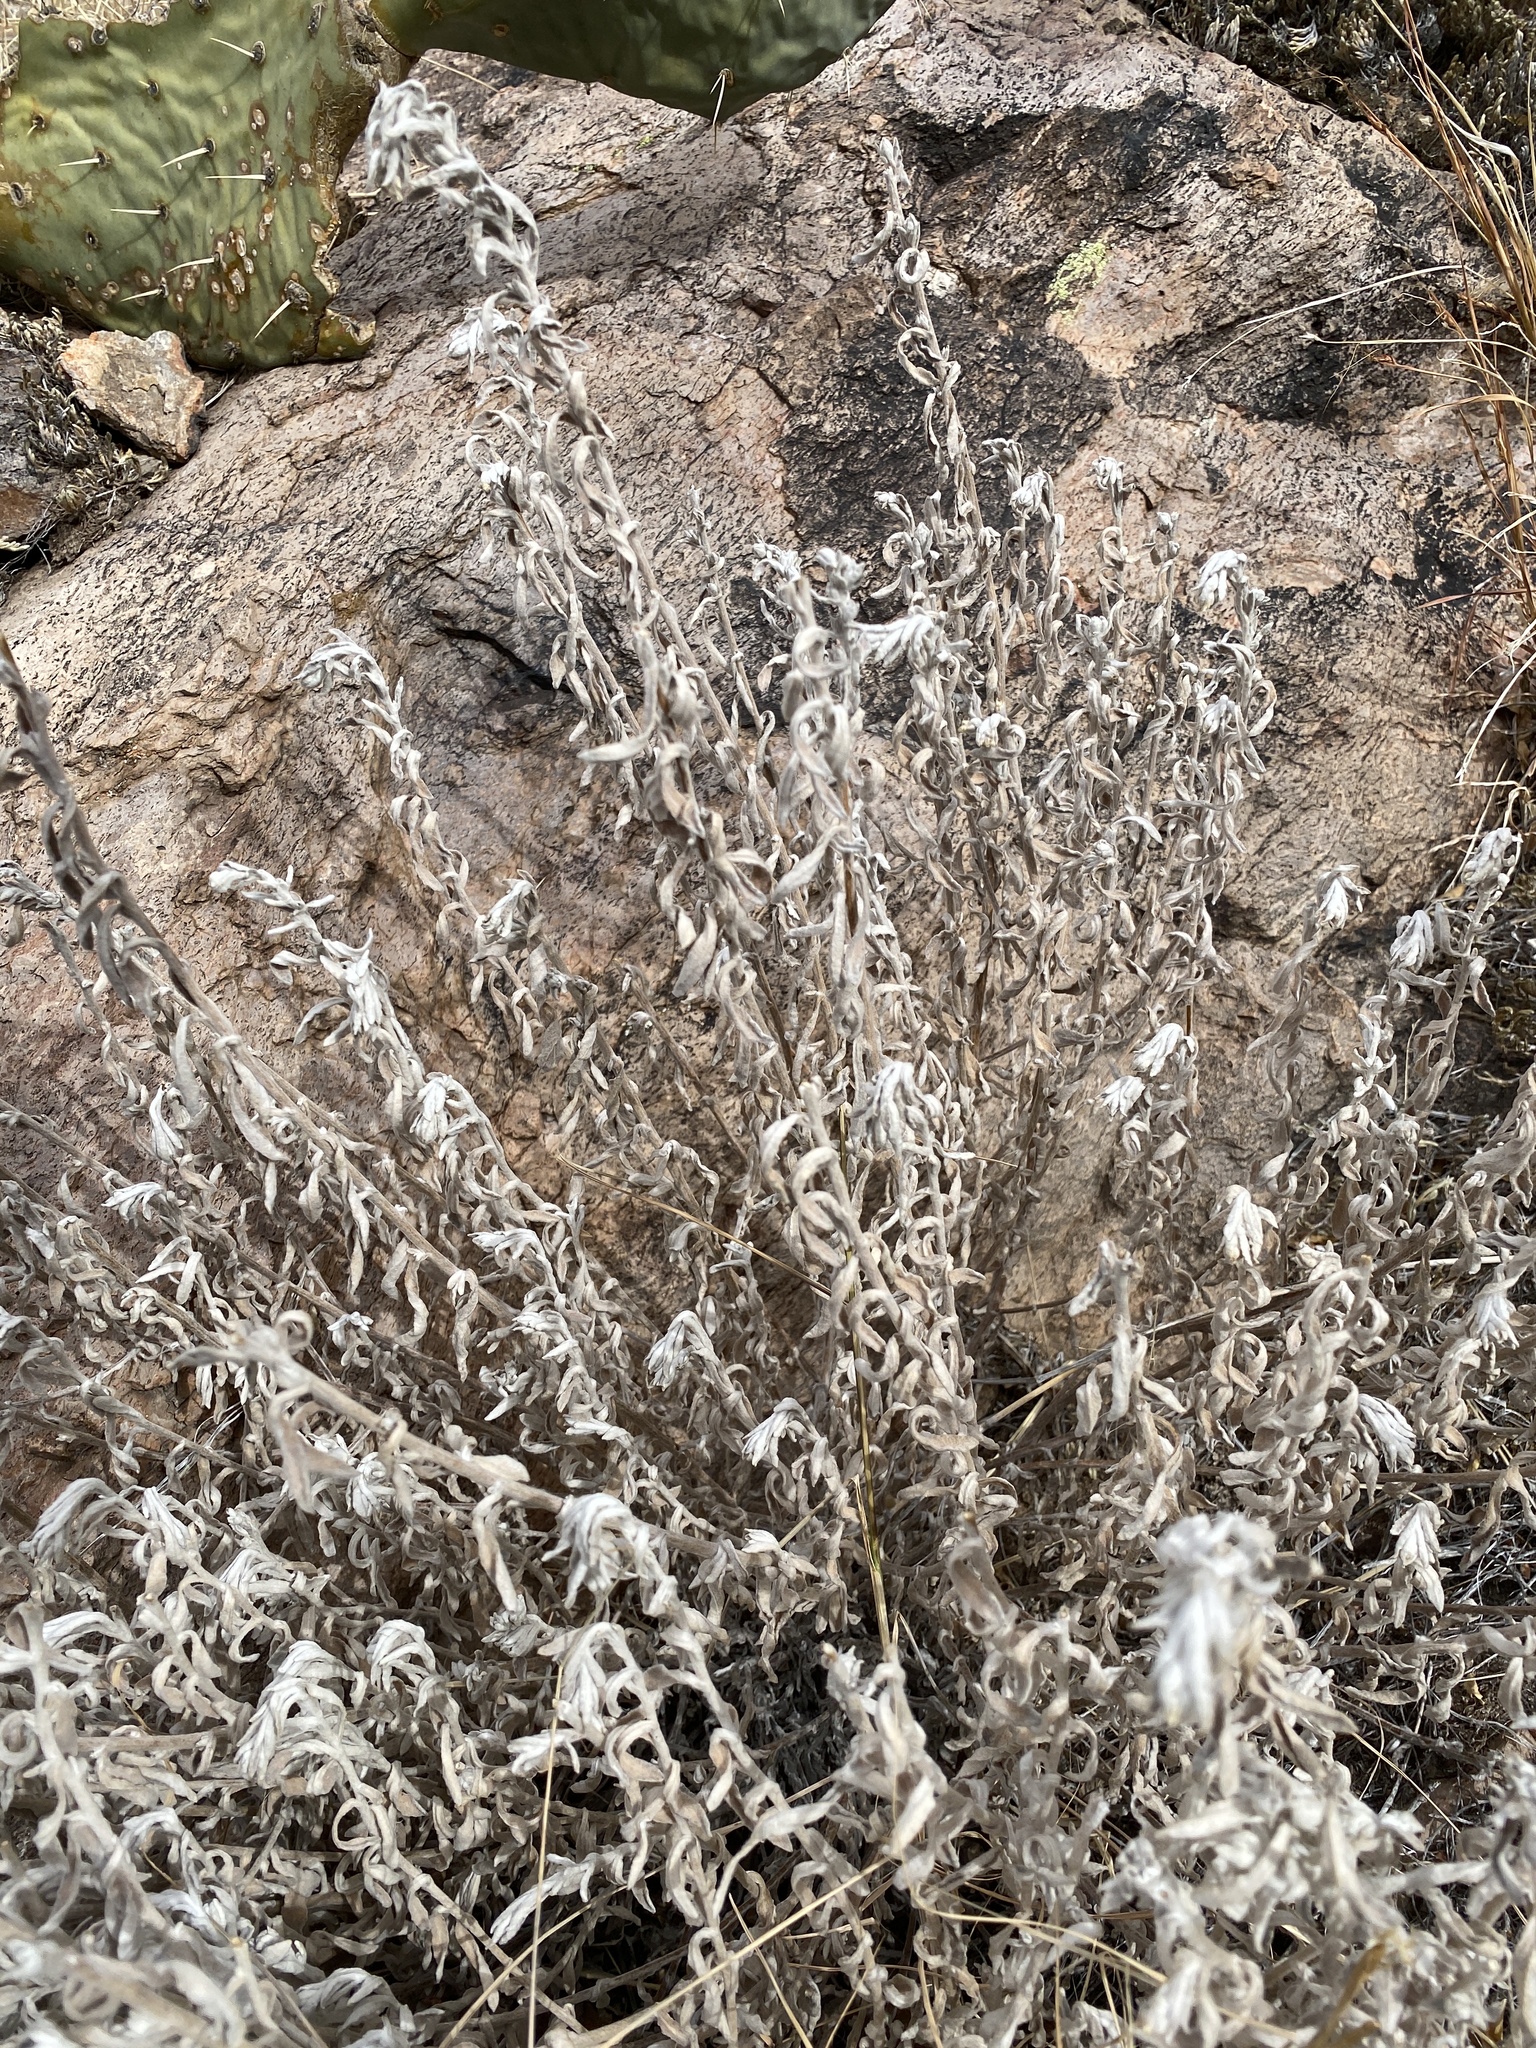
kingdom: Plantae
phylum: Tracheophyta
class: Magnoliopsida
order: Asterales
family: Asteraceae
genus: Artemisia
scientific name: Artemisia ludoviciana
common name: Western mugwort
